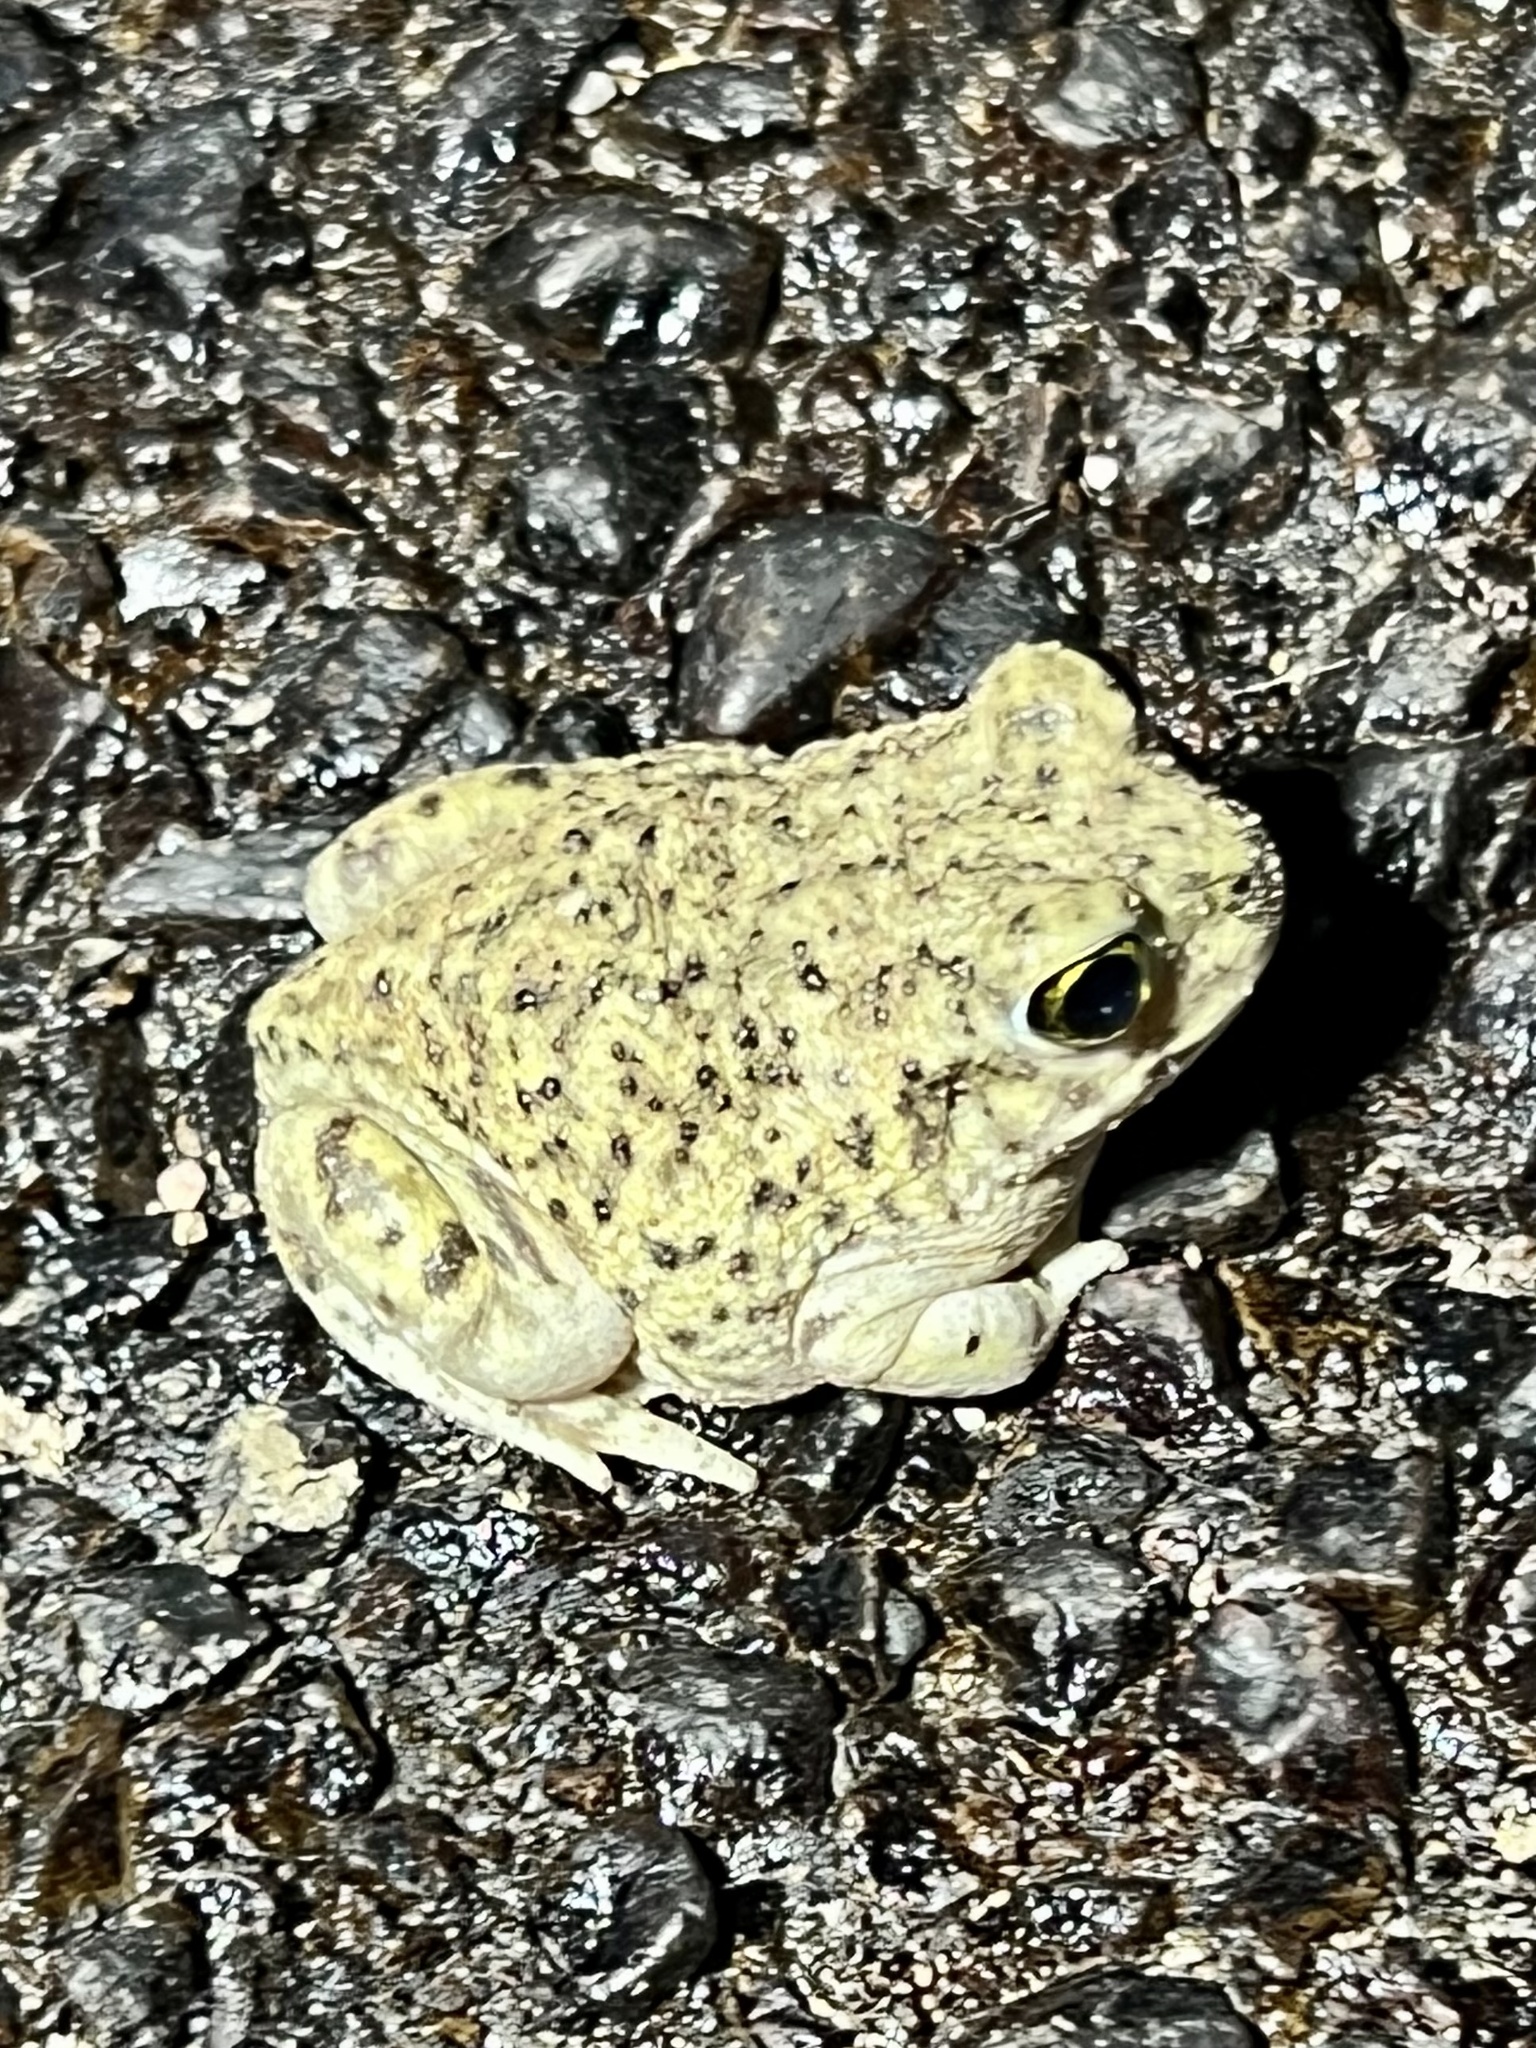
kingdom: Animalia
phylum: Chordata
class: Amphibia
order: Anura
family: Scaphiopodidae
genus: Scaphiopus
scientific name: Scaphiopus couchii
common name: Couch's spadefoot toad
